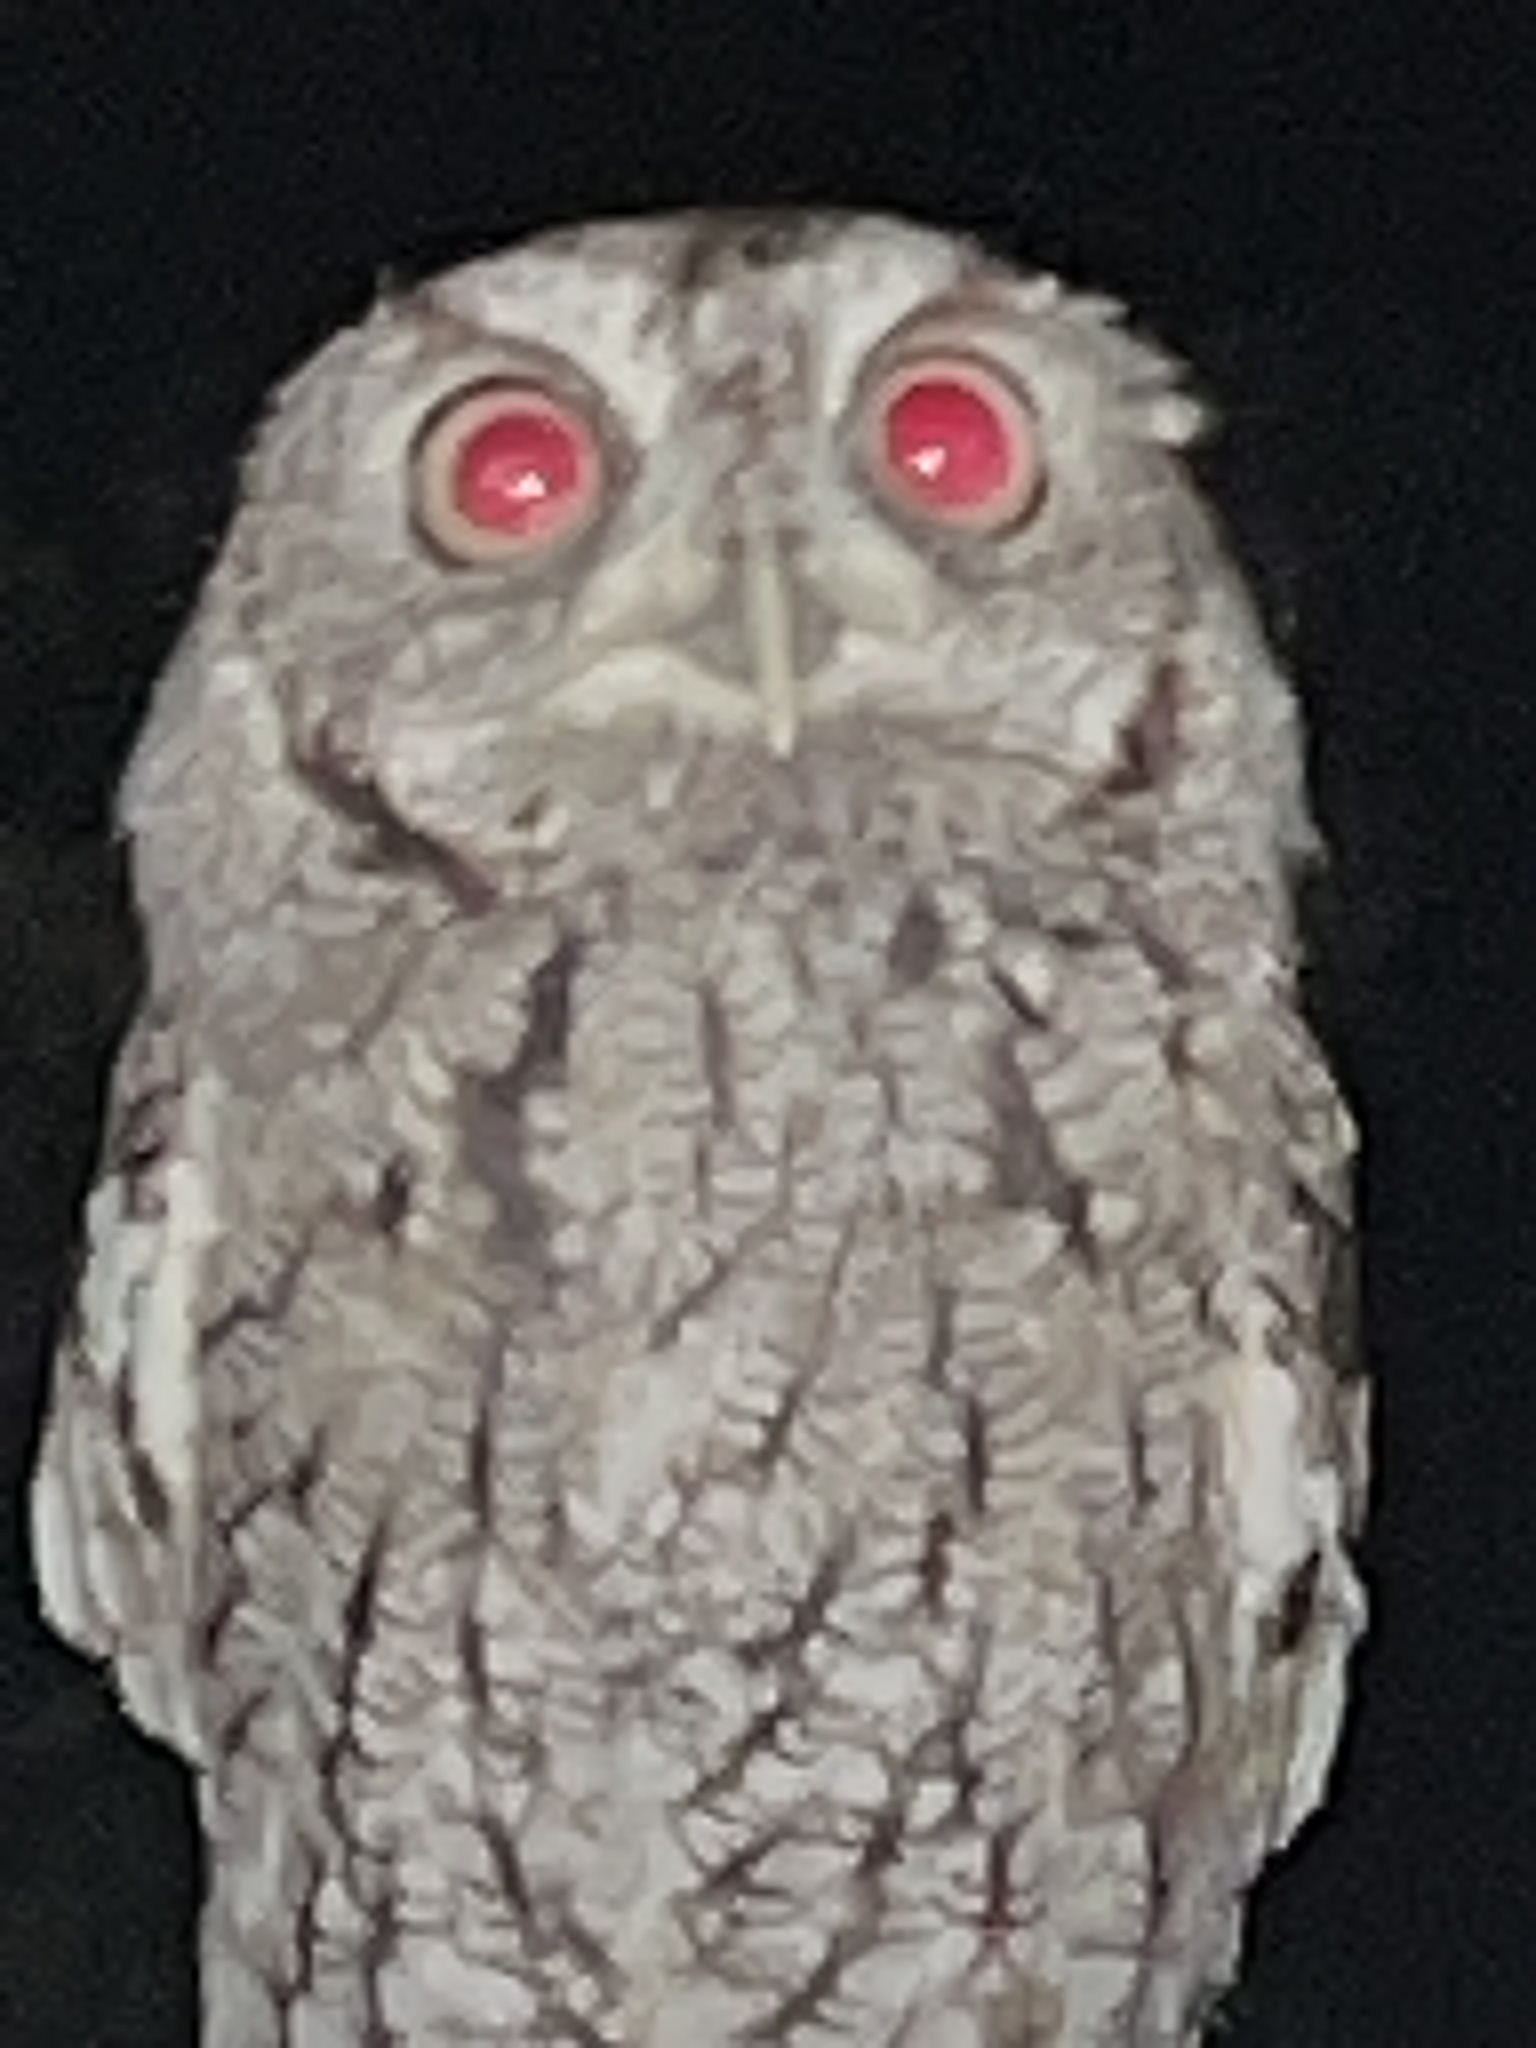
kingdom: Animalia
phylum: Chordata
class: Aves
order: Strigiformes
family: Strigidae
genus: Megascops
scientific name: Megascops asio
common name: Eastern screech-owl
